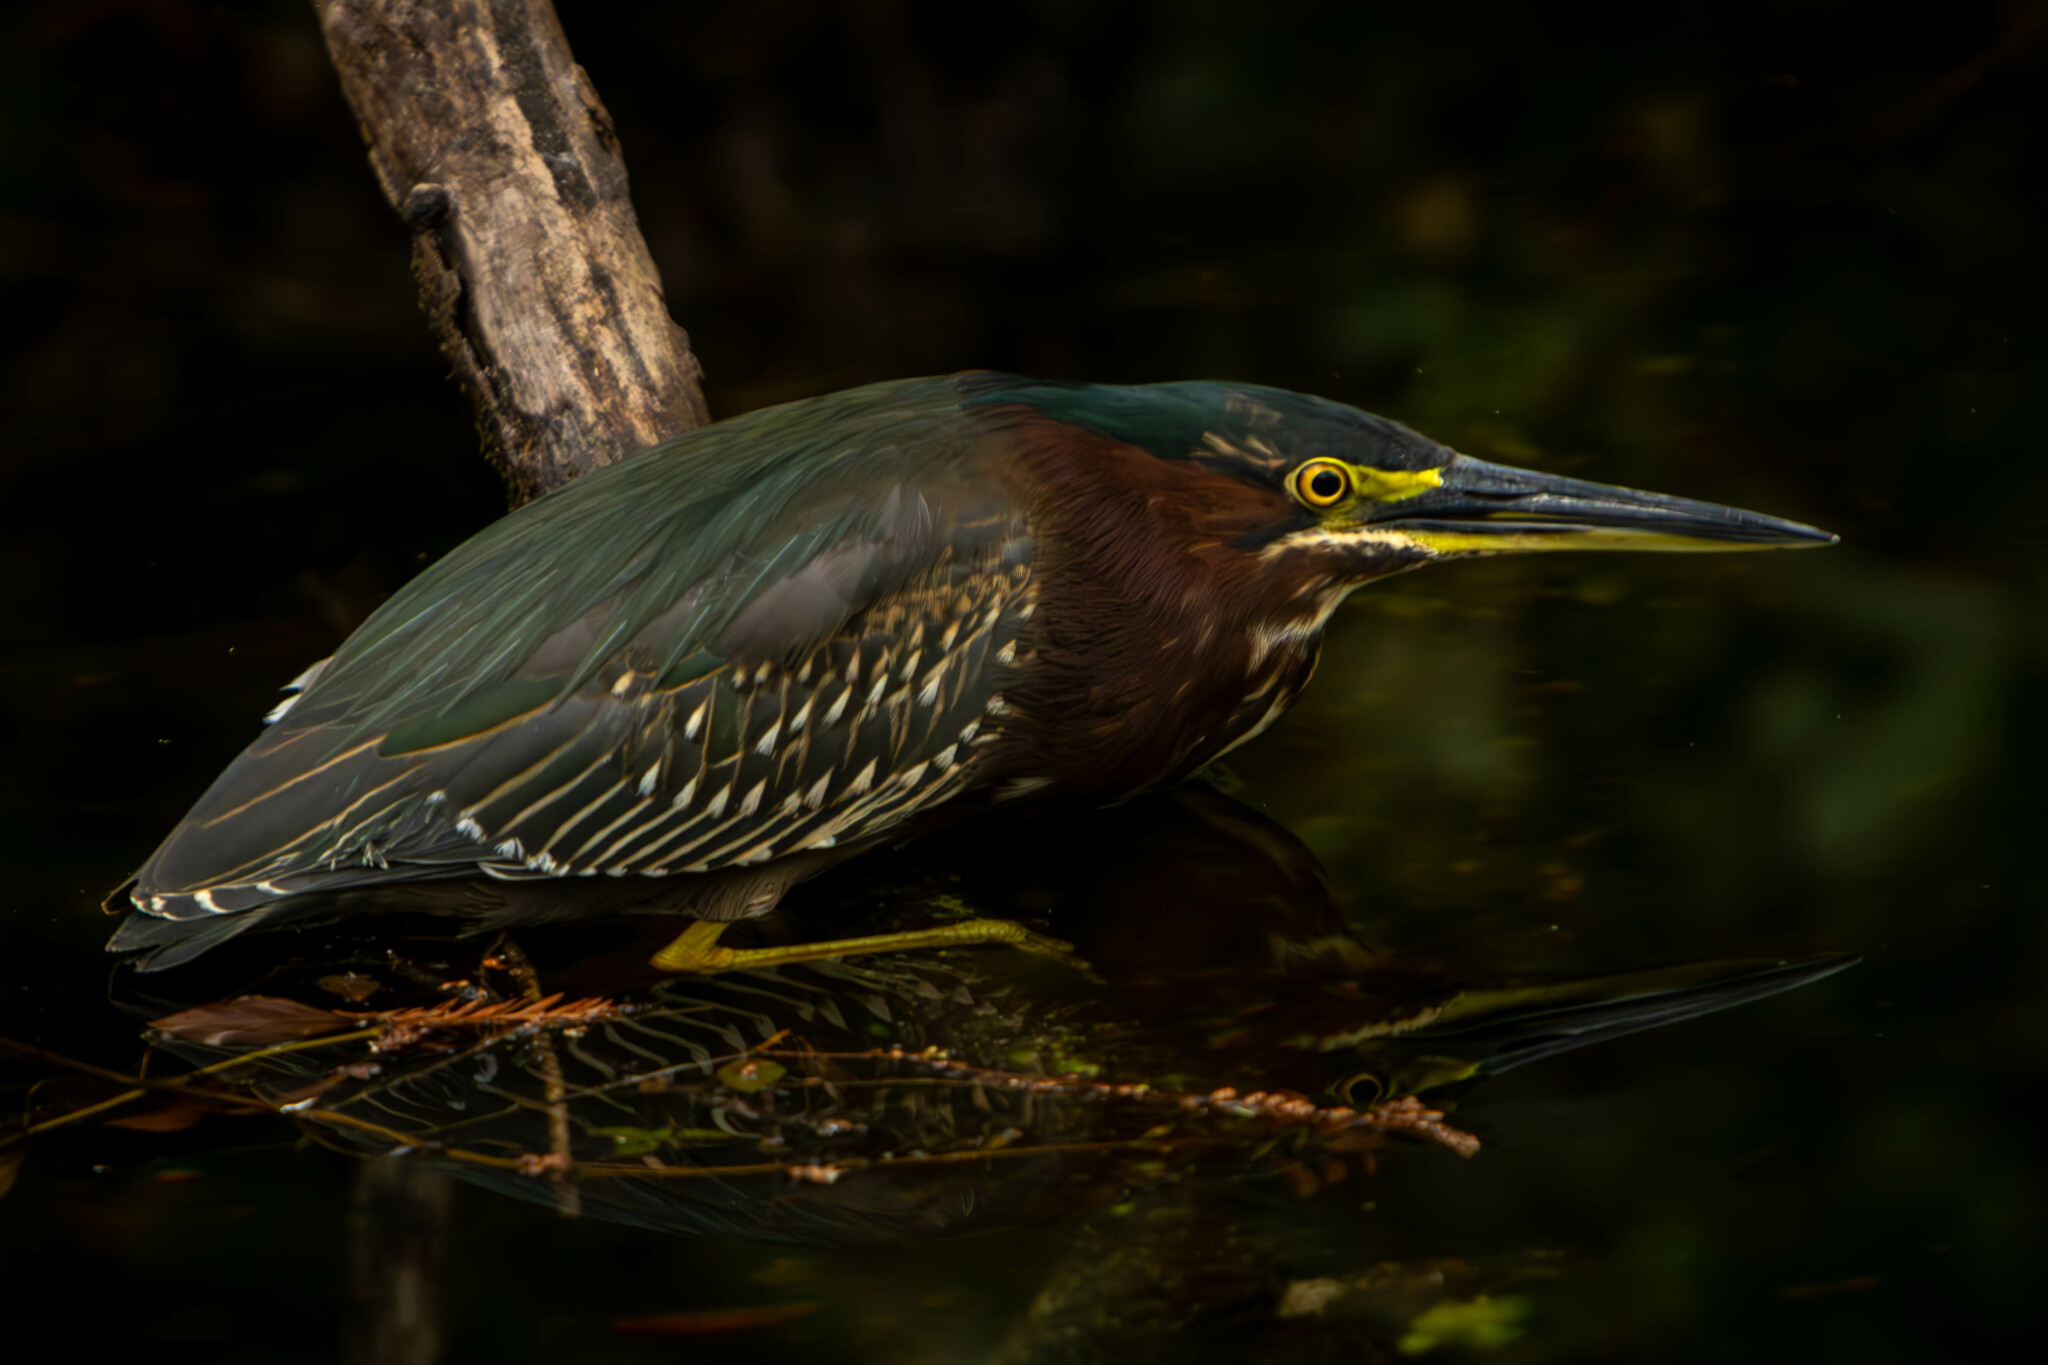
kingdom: Animalia
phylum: Chordata
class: Aves
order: Pelecaniformes
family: Ardeidae
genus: Butorides
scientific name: Butorides virescens
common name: Green heron
